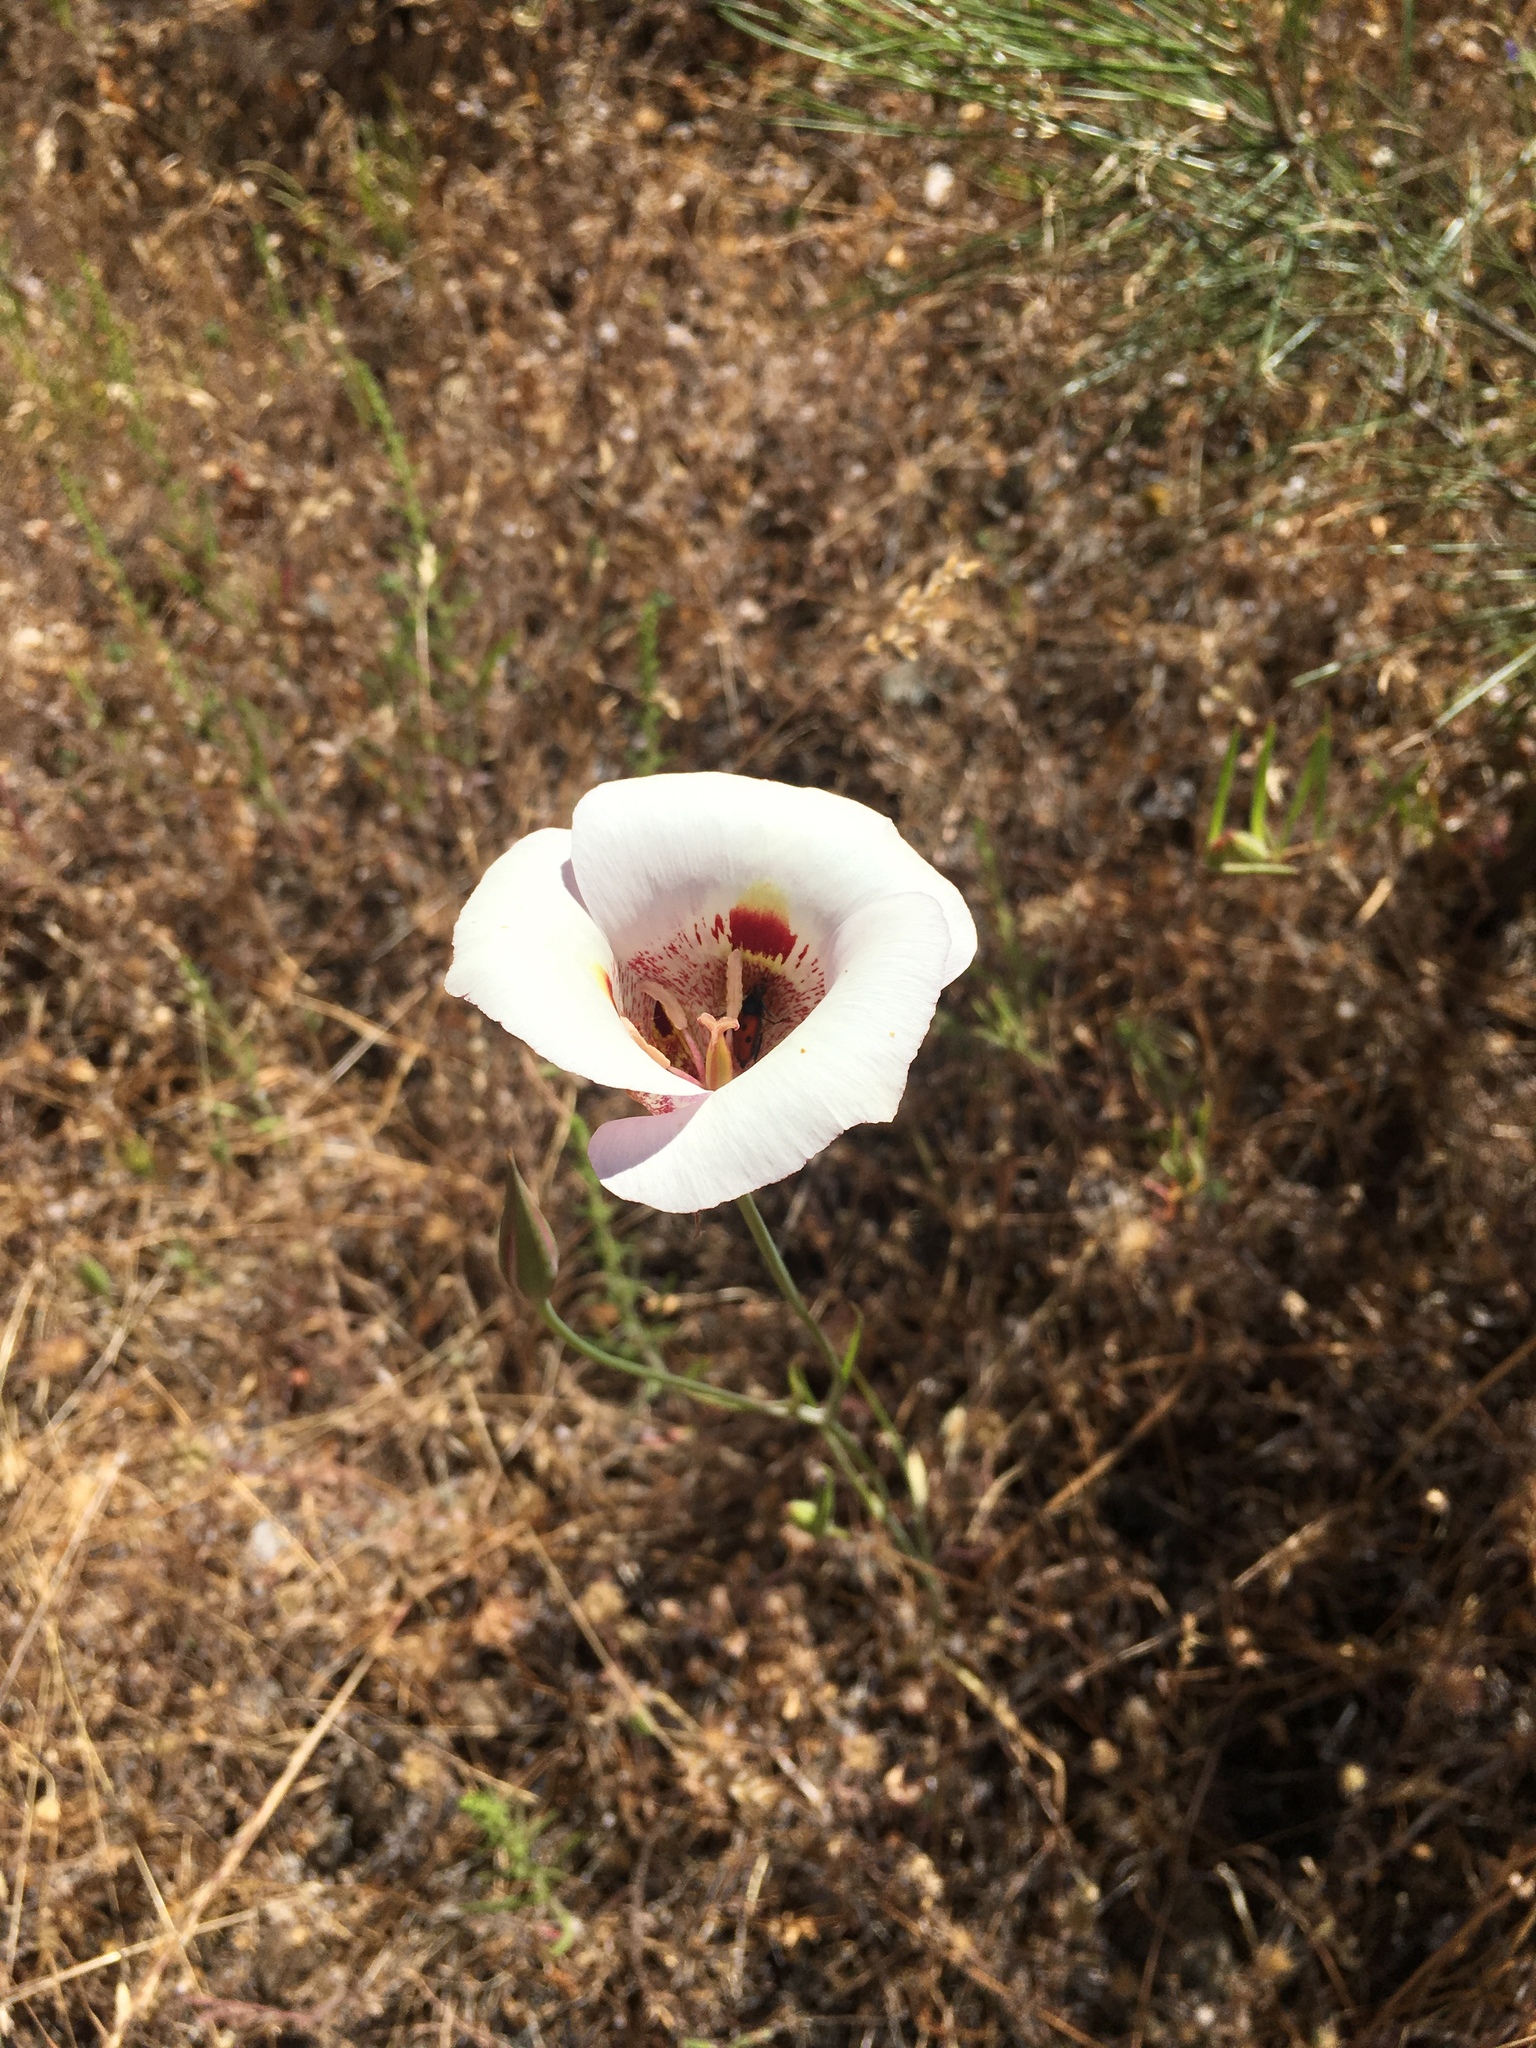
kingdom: Plantae
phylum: Tracheophyta
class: Liliopsida
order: Liliales
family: Liliaceae
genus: Calochortus
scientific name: Calochortus argillosus
